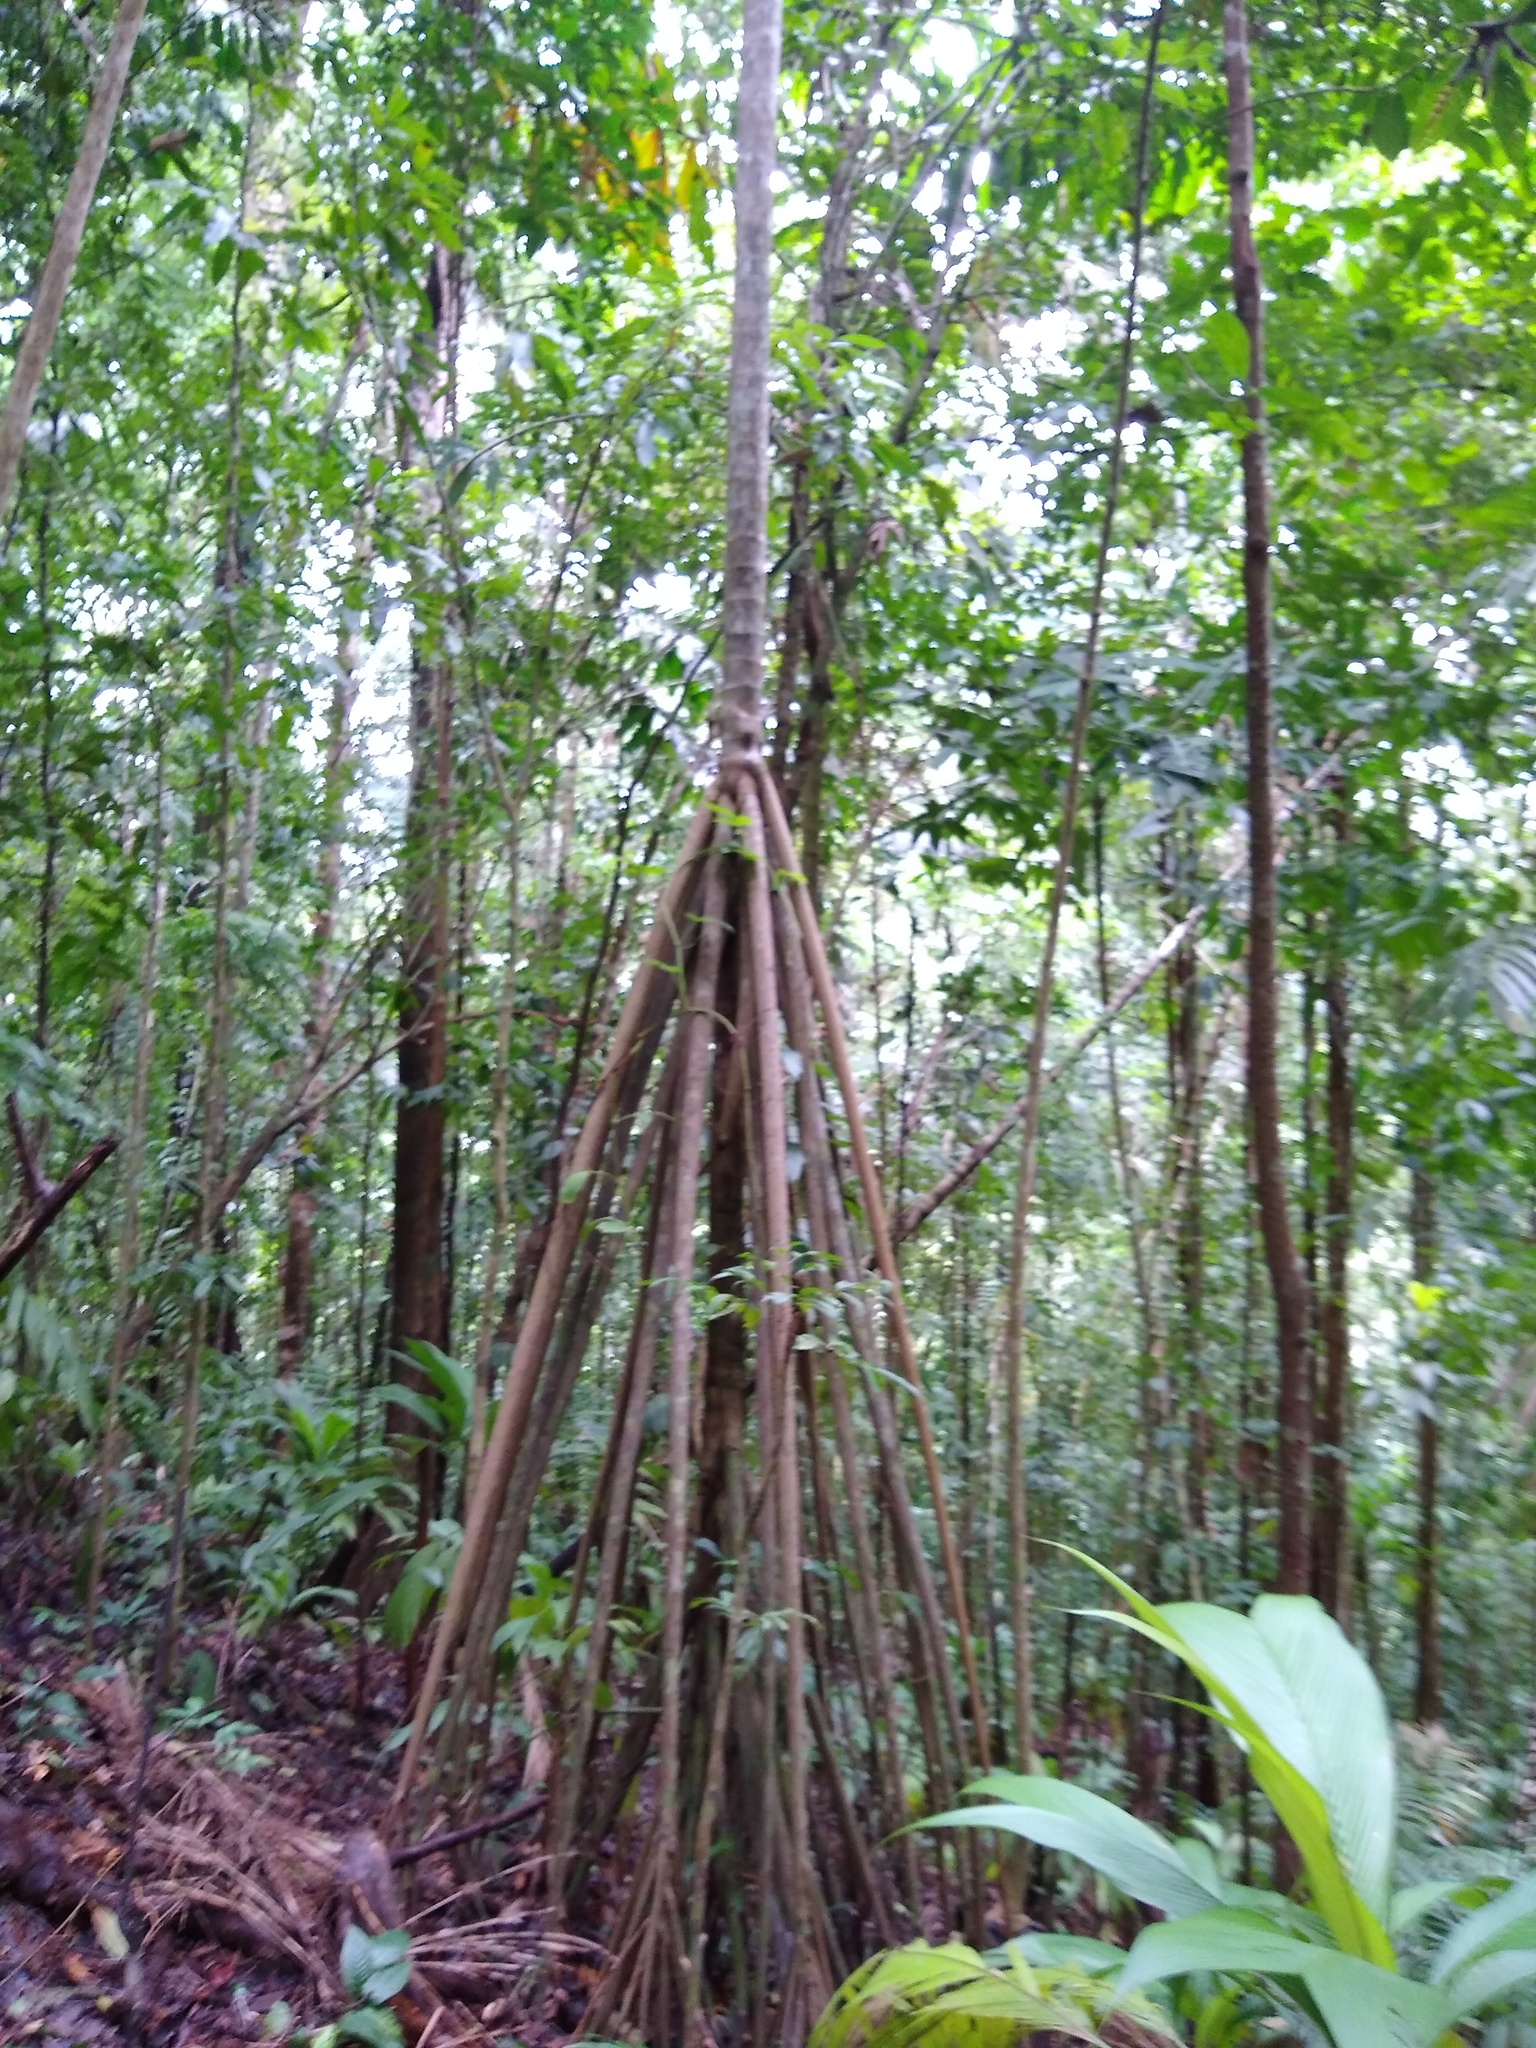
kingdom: Plantae
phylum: Tracheophyta
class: Liliopsida
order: Arecales
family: Arecaceae
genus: Socratea
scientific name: Socratea exorrhiza
